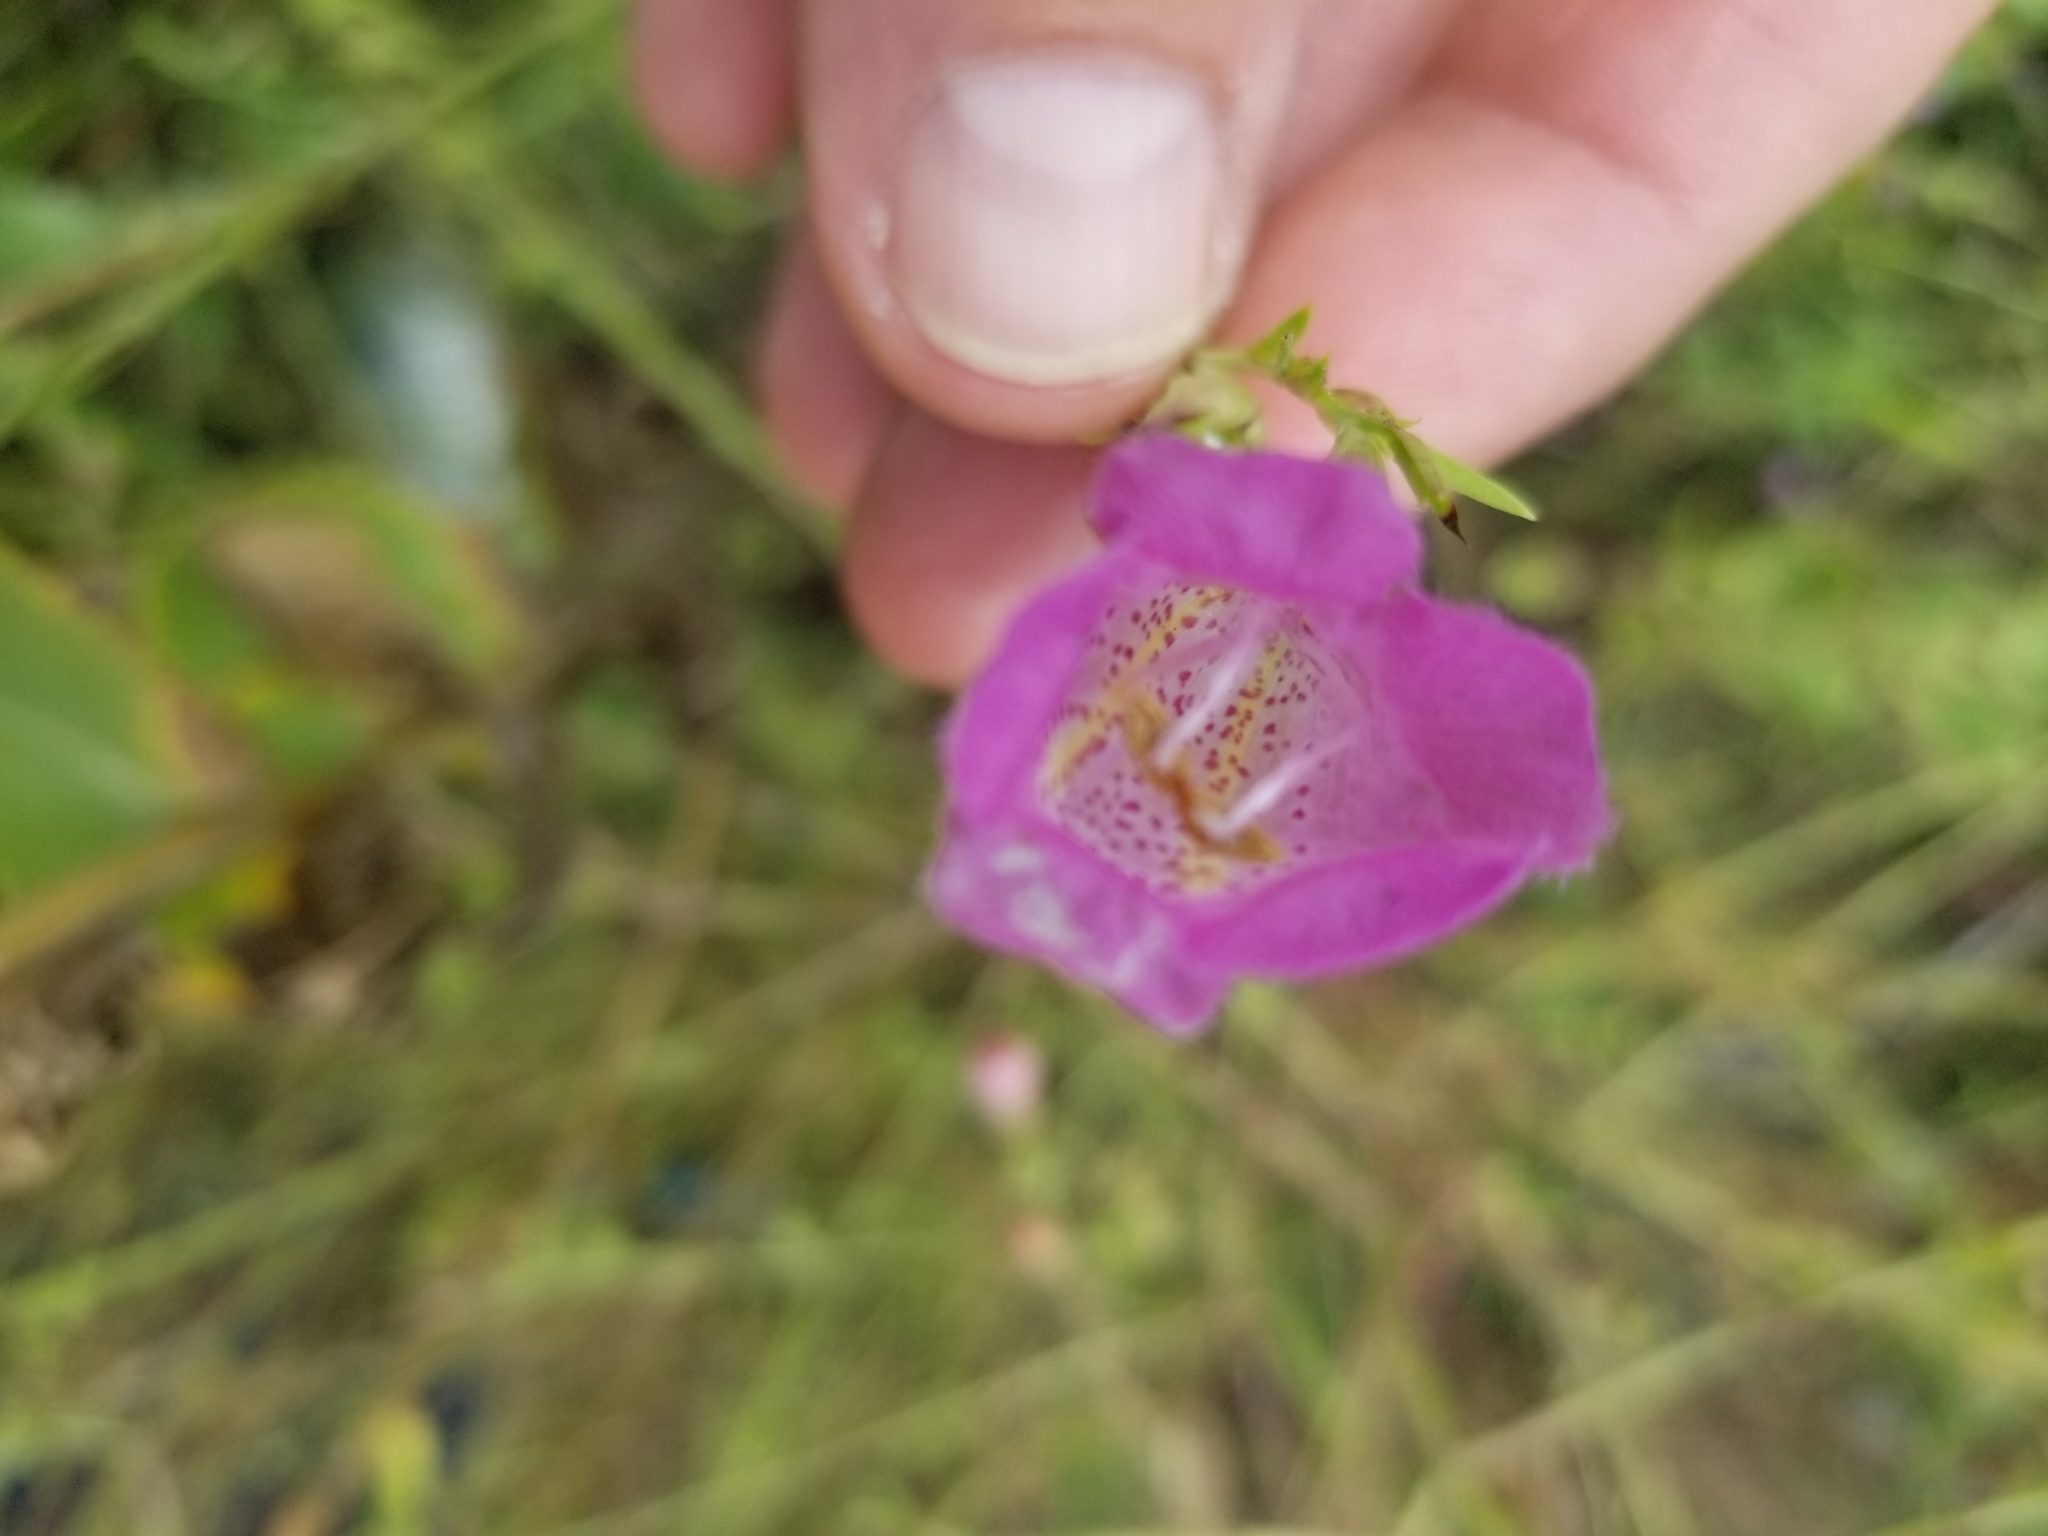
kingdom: Plantae
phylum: Tracheophyta
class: Magnoliopsida
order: Lamiales
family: Orobanchaceae
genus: Agalinis
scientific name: Agalinis heterophylla
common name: Prairie agalinis
